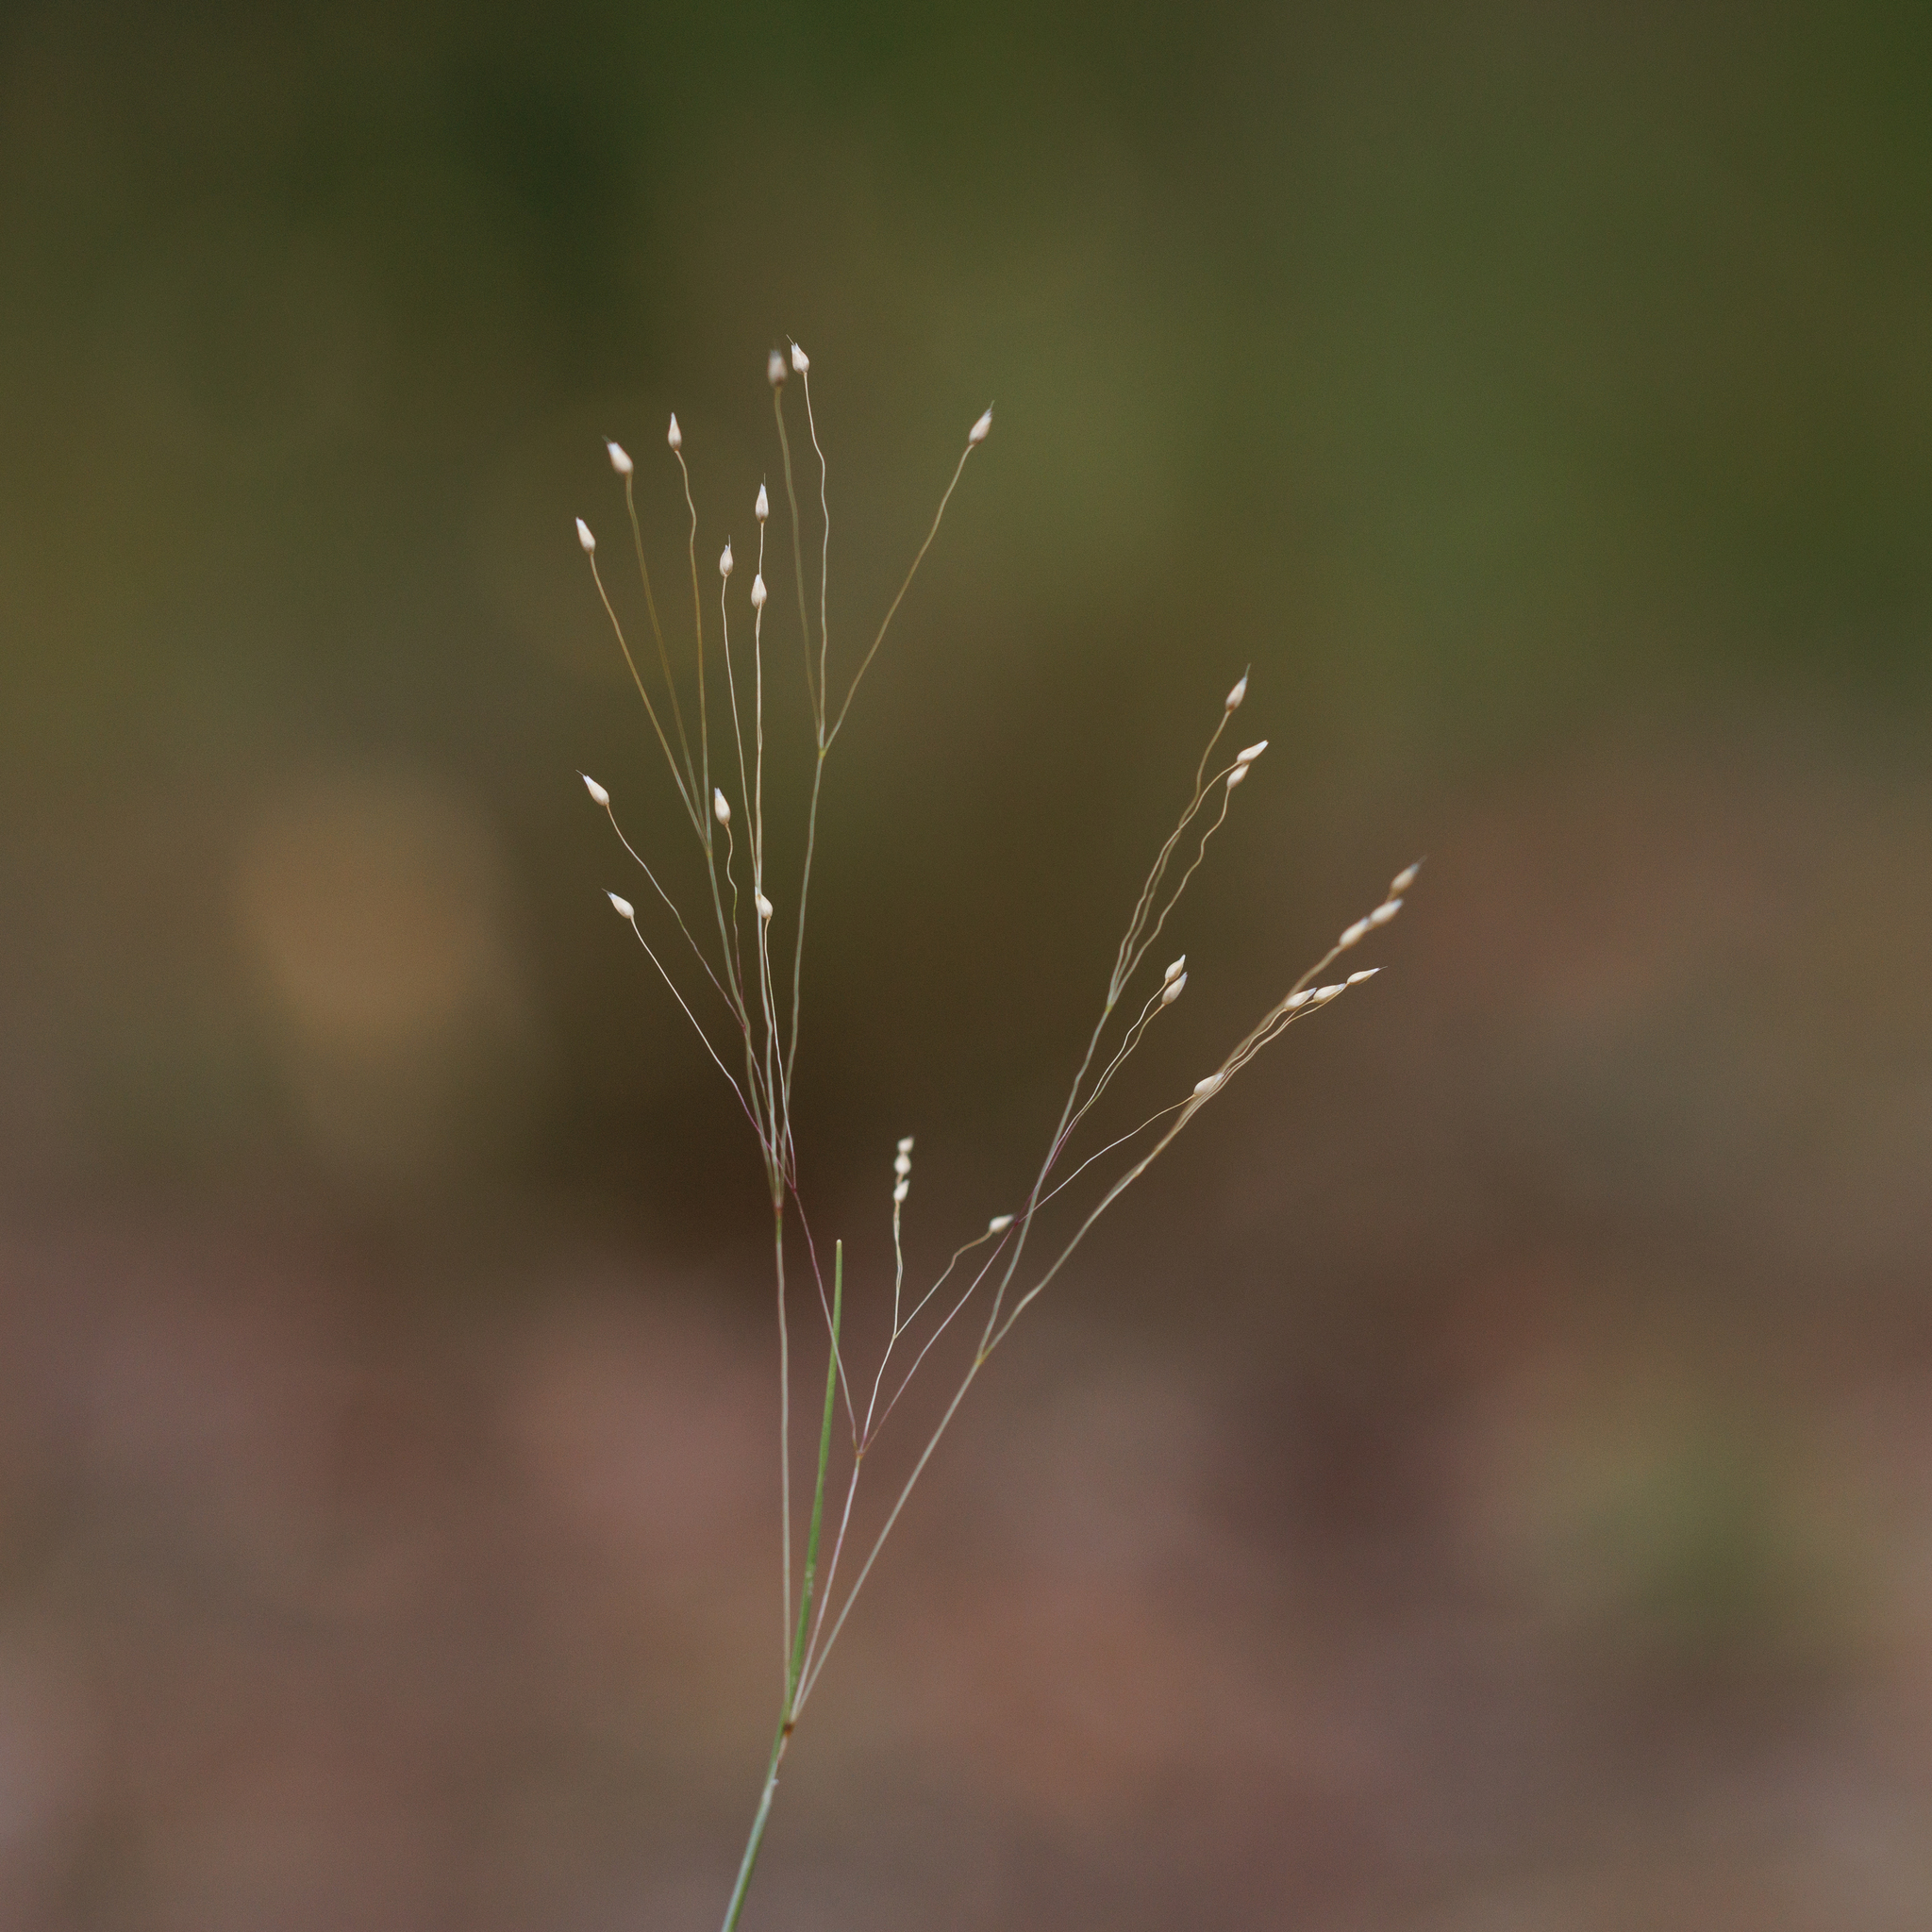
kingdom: Plantae
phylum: Tracheophyta
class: Liliopsida
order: Poales
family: Poaceae
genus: Aira
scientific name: Aira elegans
